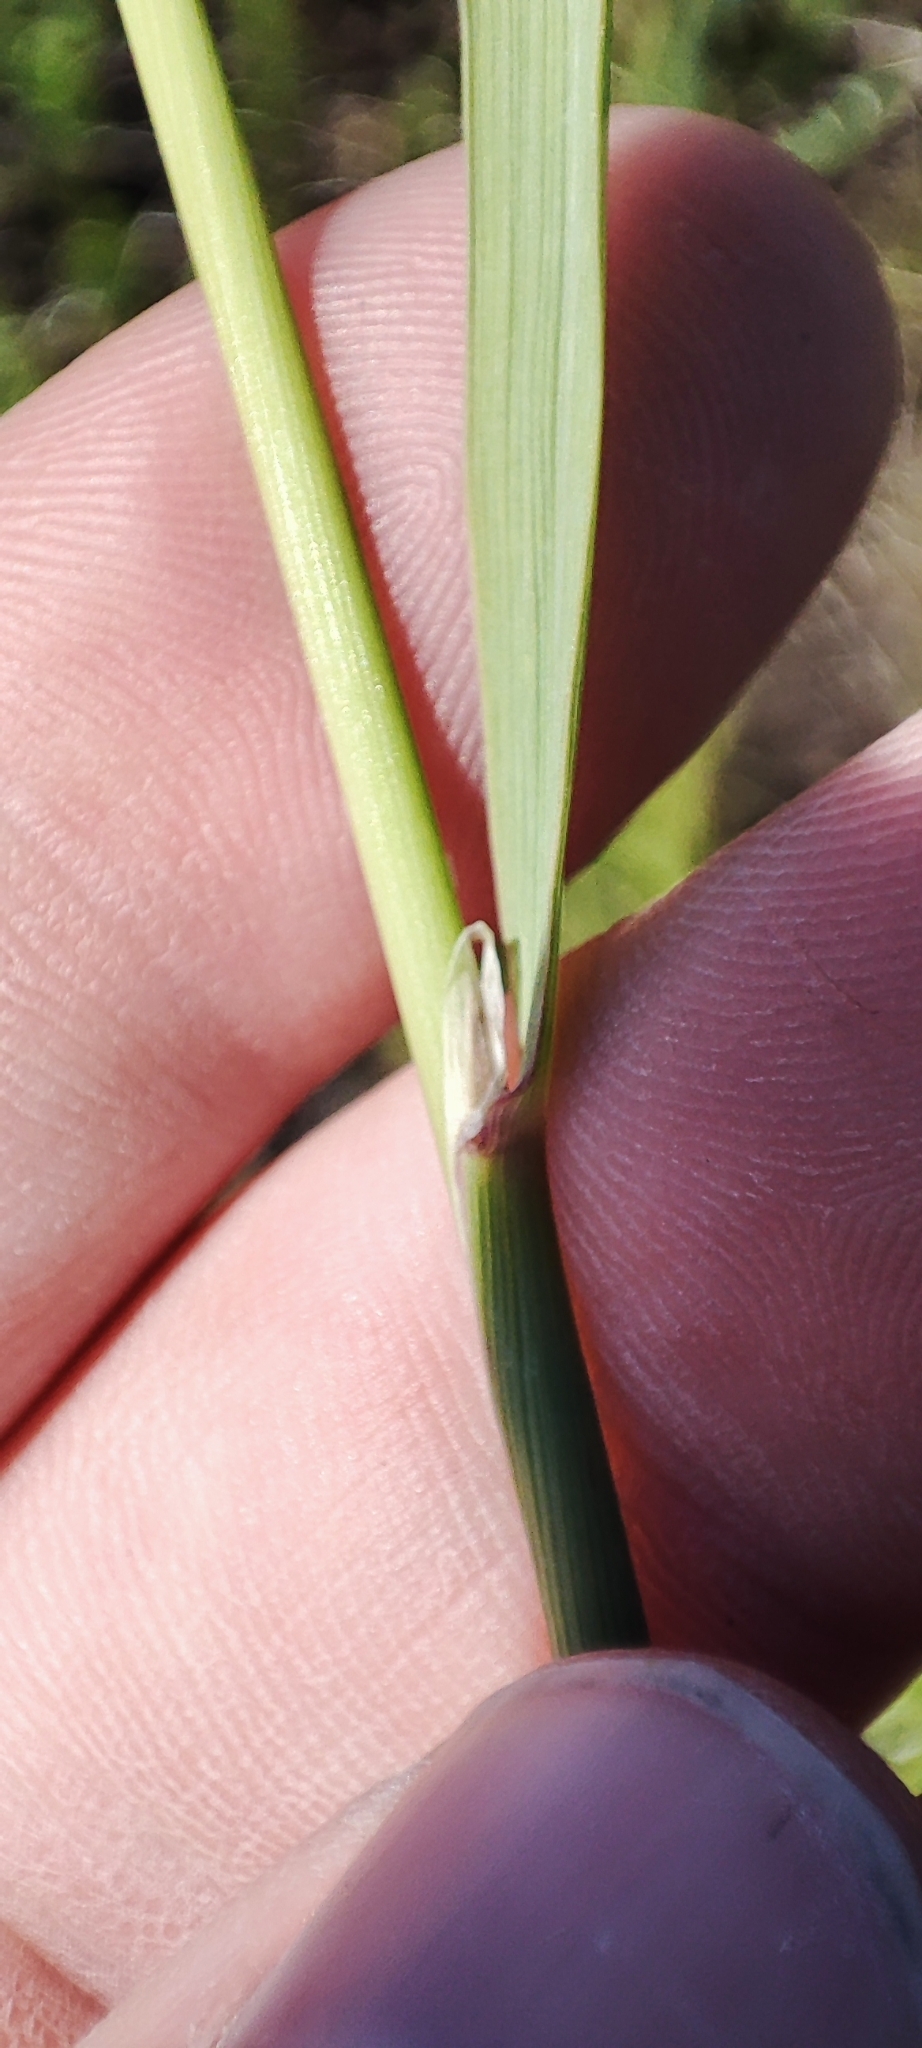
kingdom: Plantae
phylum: Tracheophyta
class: Liliopsida
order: Poales
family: Poaceae
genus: Calamagrostis
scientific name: Calamagrostis epigejos
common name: Wood small-reed
